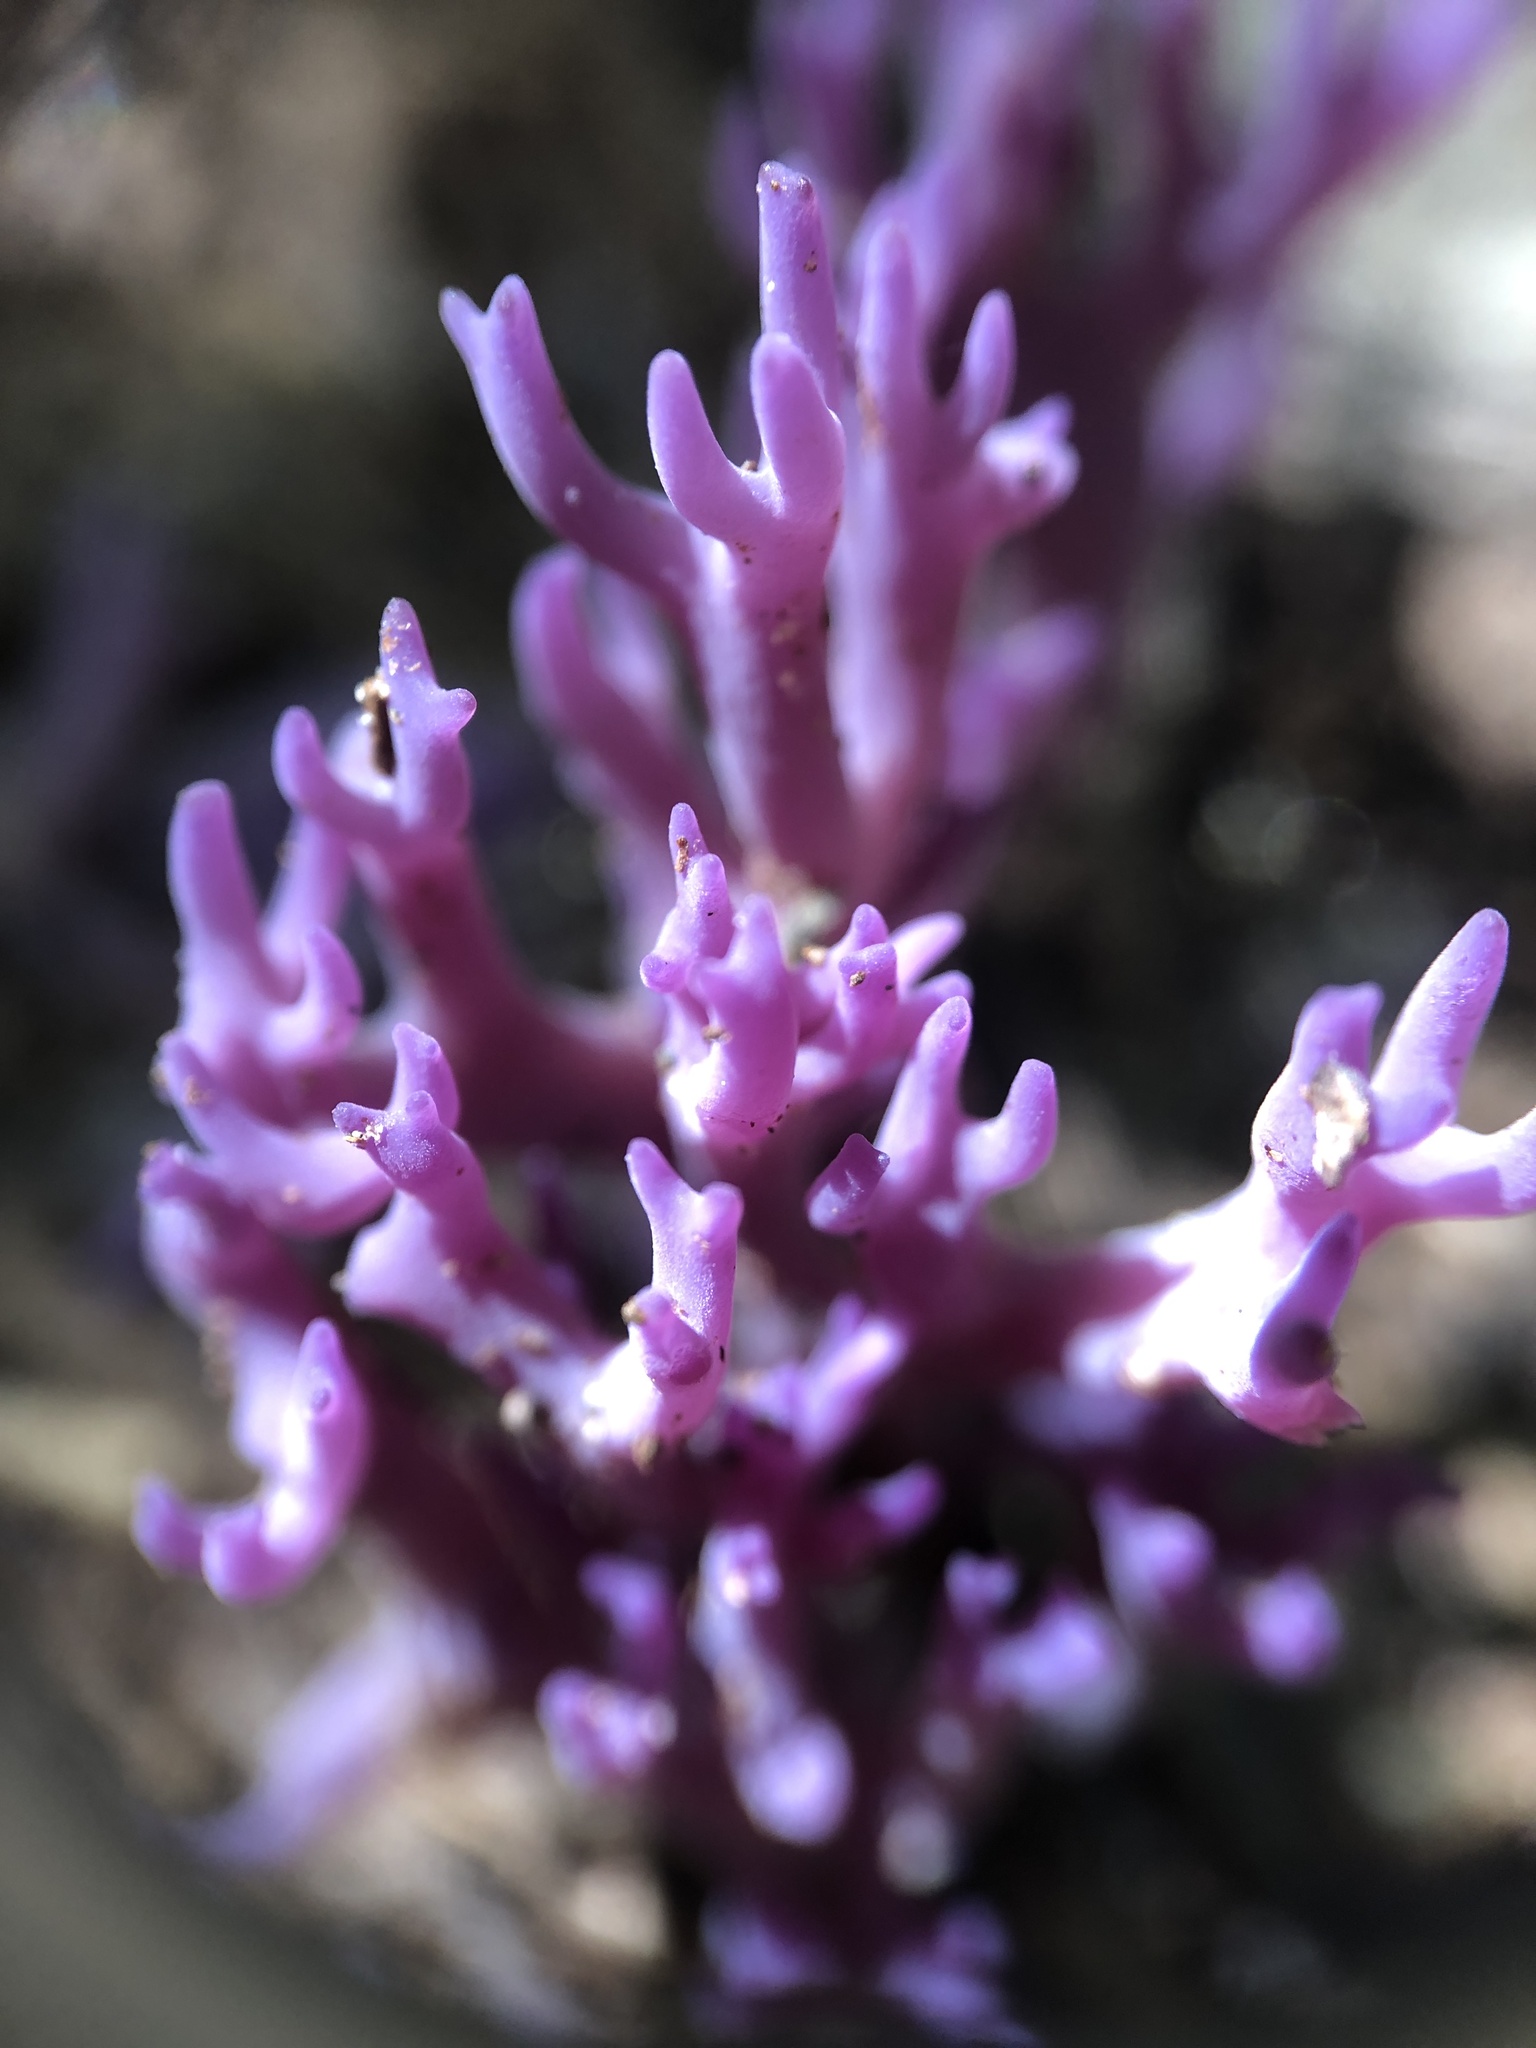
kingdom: Fungi
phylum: Basidiomycota
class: Agaricomycetes
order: Agaricales
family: Clavariaceae
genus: Clavaria
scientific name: Clavaria zollingeri
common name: Violet coral
